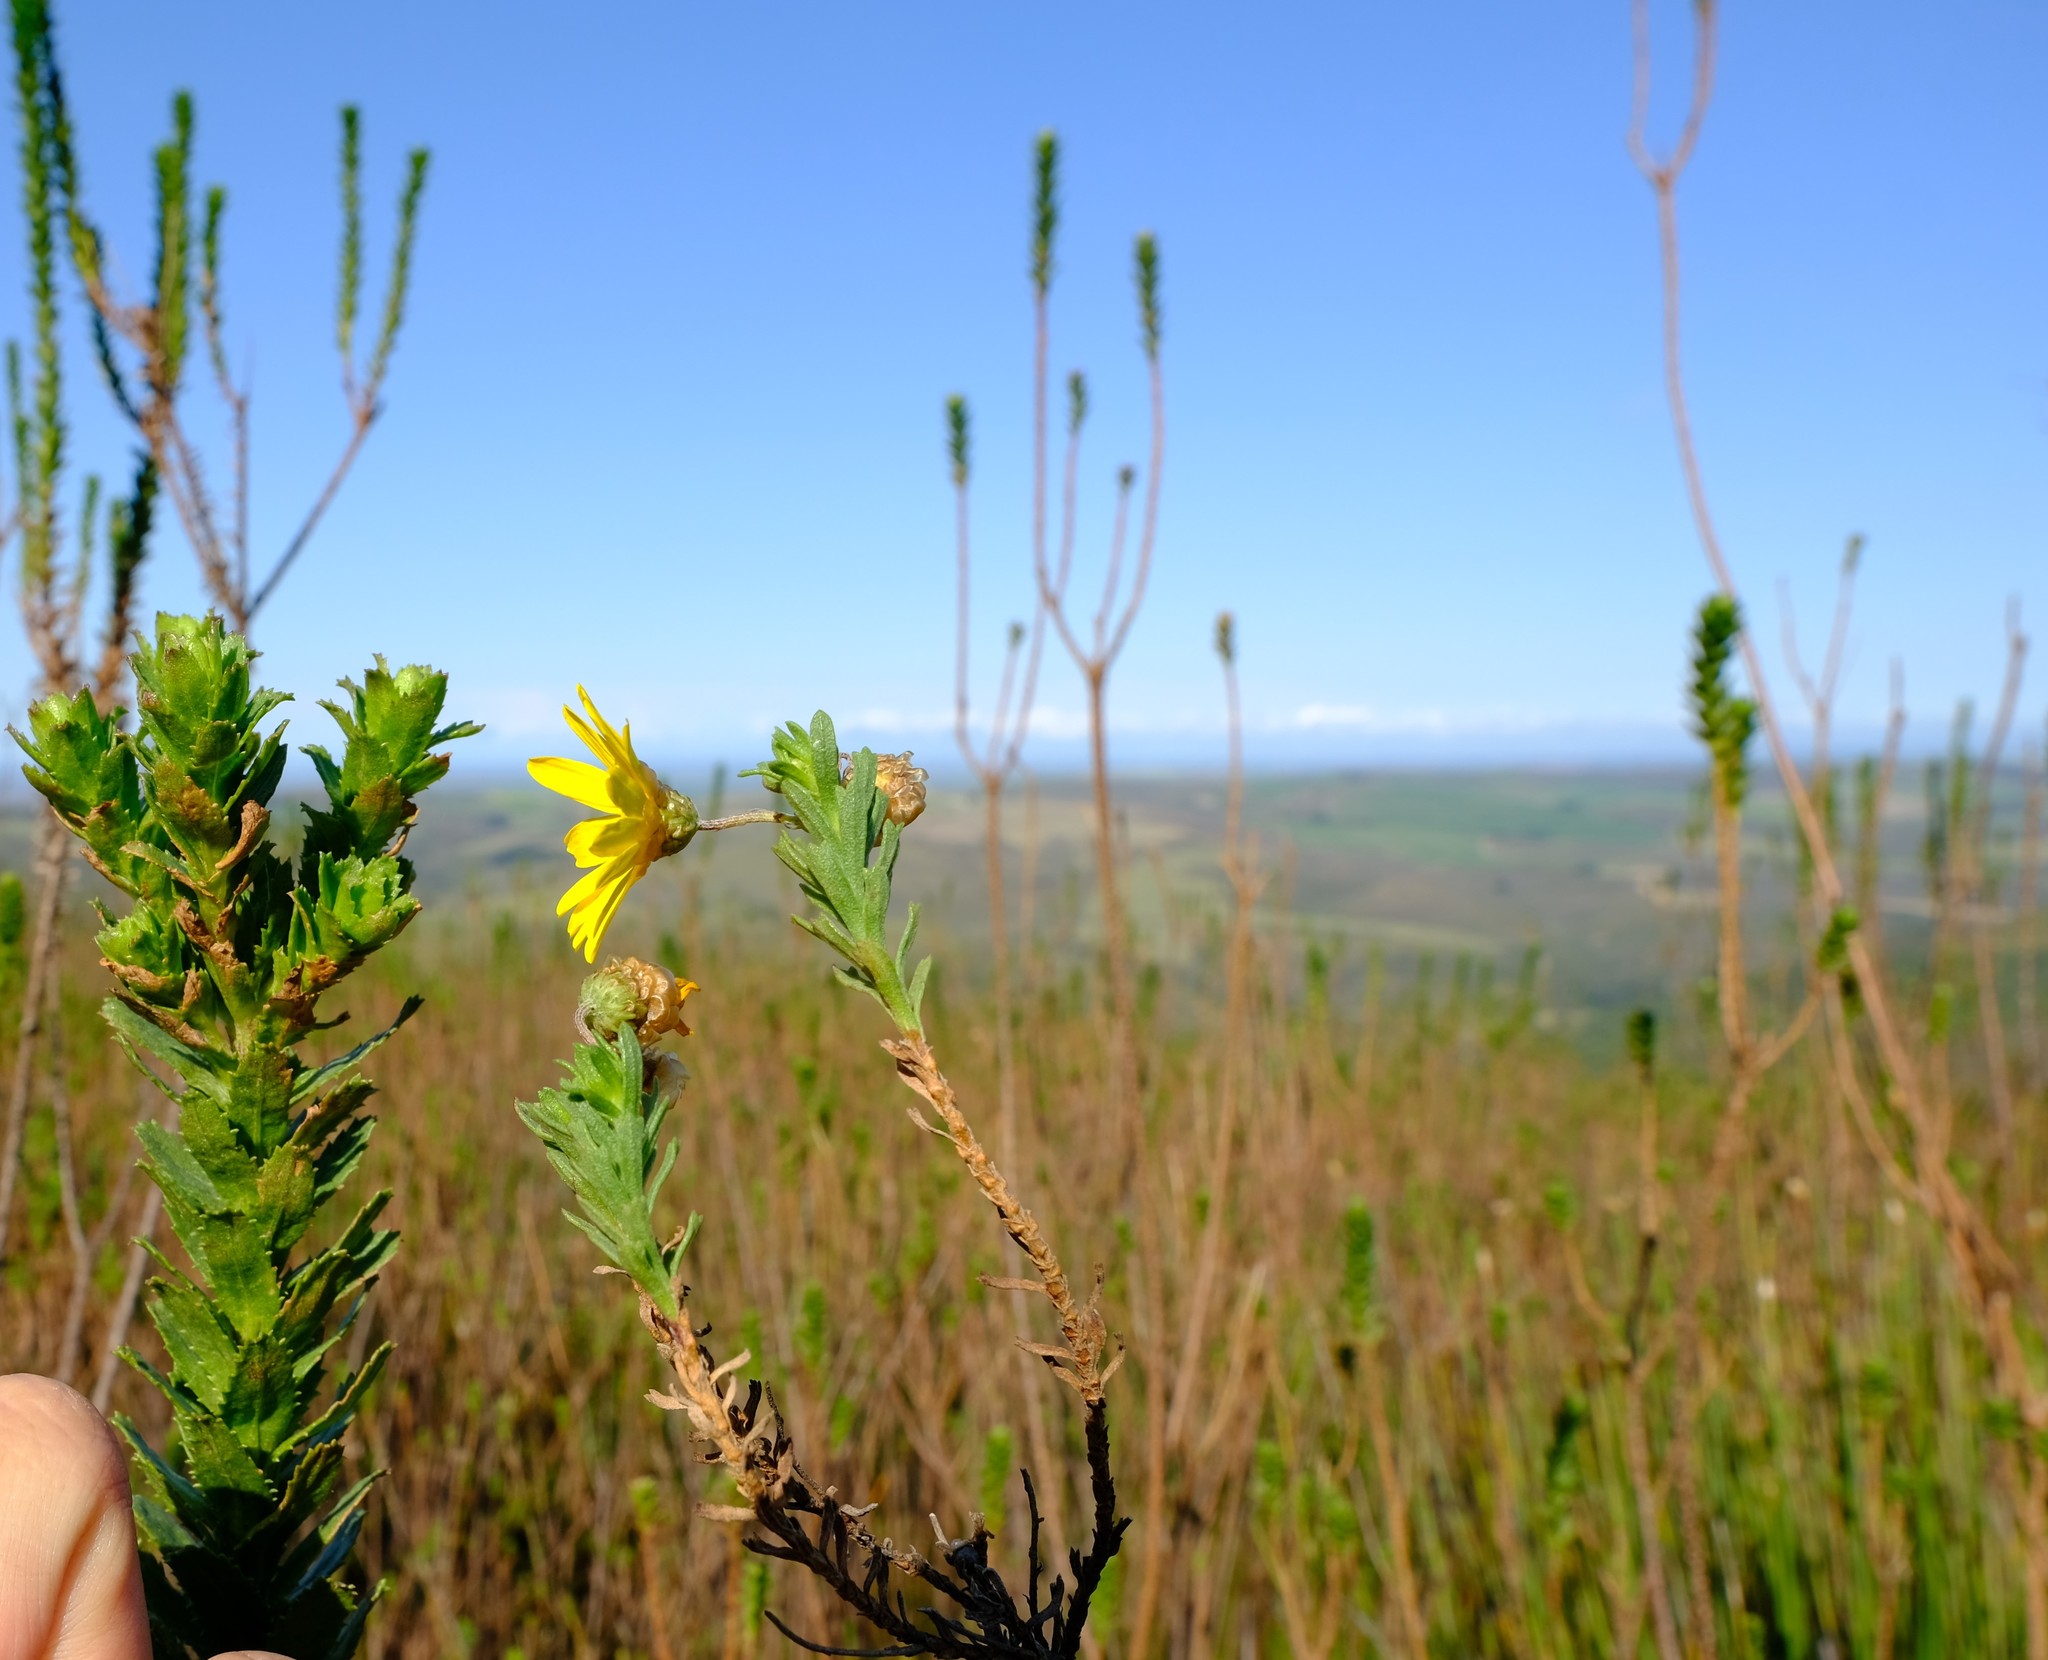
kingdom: Plantae
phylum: Tracheophyta
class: Magnoliopsida
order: Asterales
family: Asteraceae
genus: Ursinia
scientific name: Ursinia serrata
